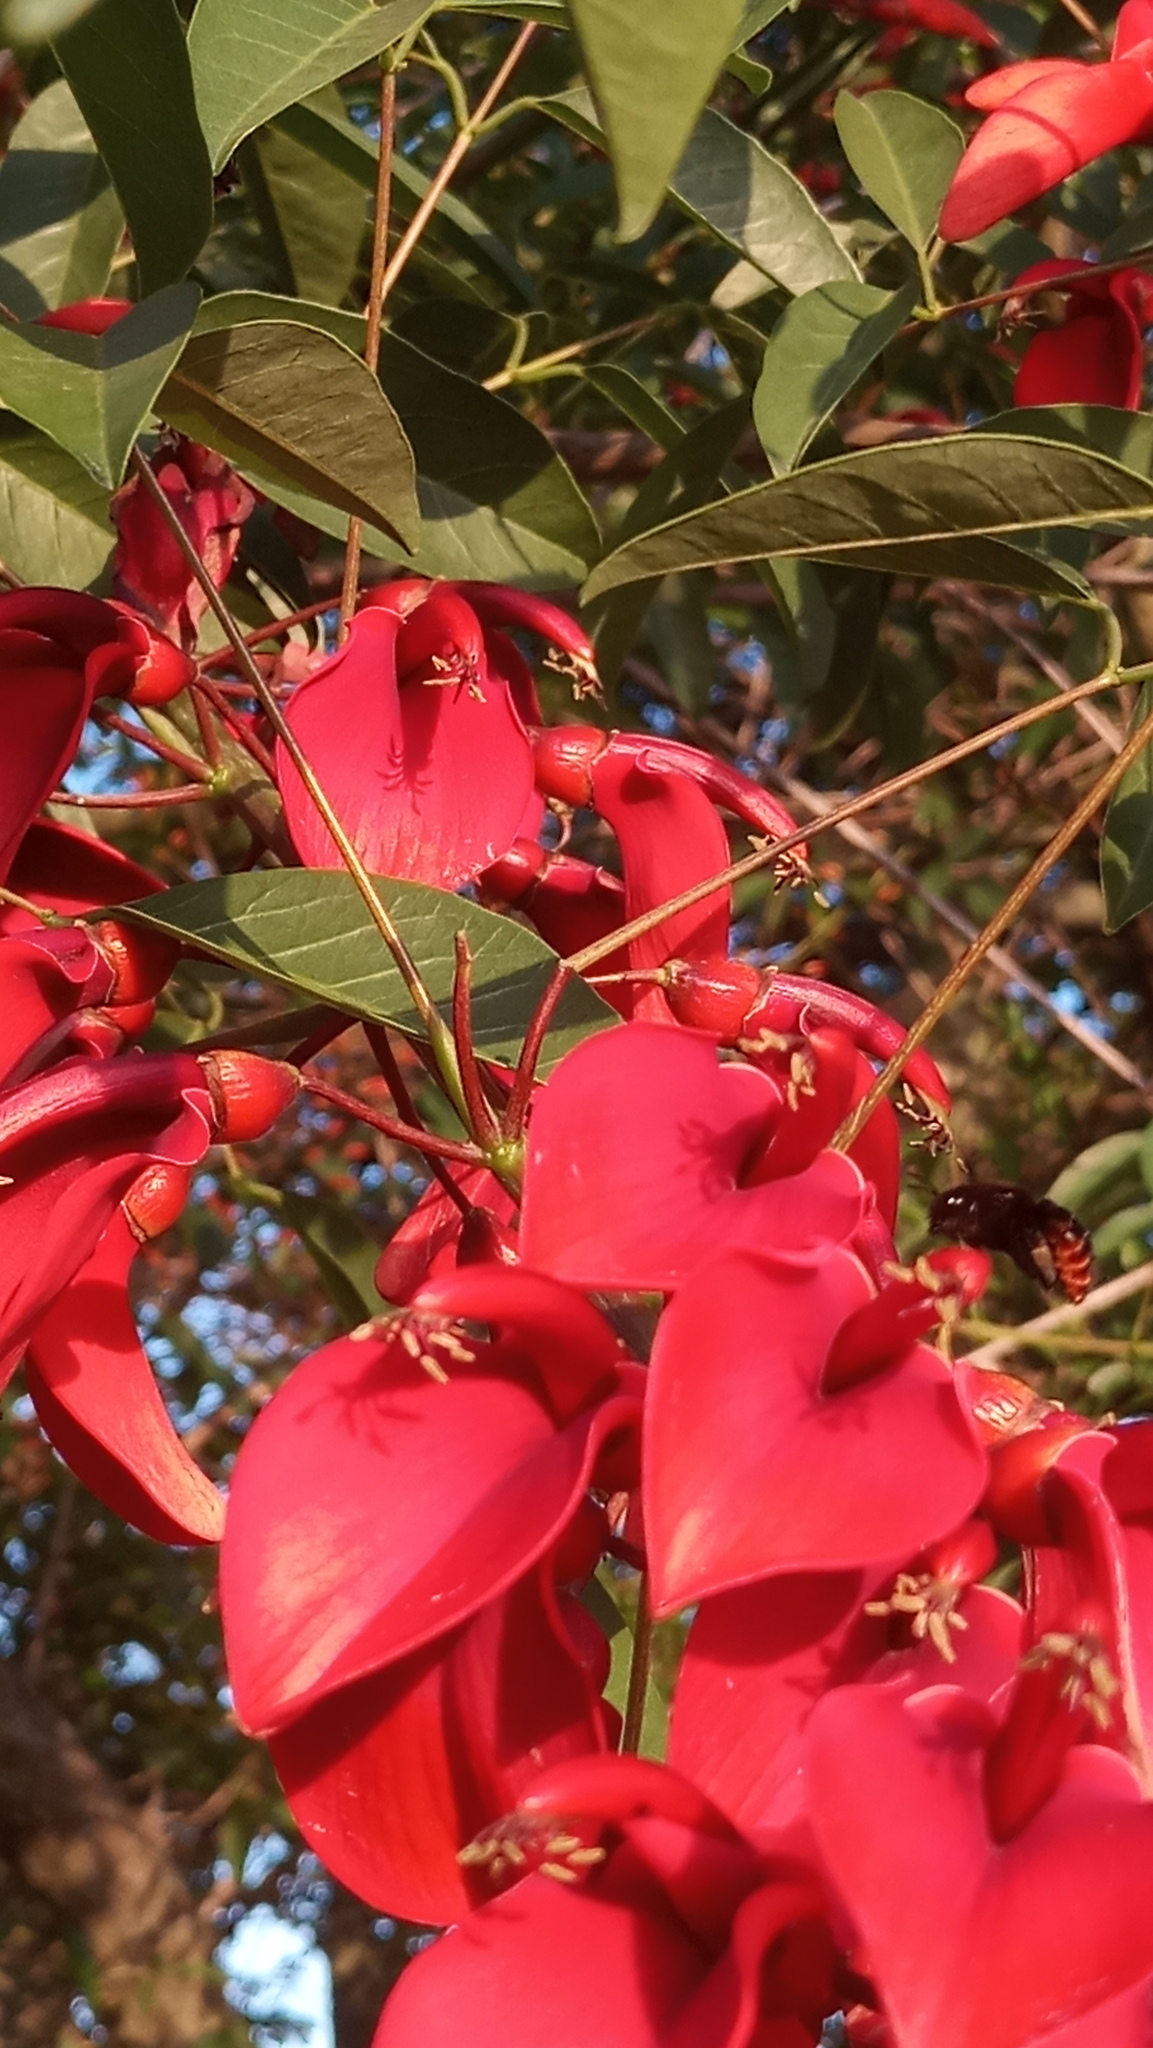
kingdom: Plantae
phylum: Tracheophyta
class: Magnoliopsida
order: Fabales
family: Fabaceae
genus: Erythrina
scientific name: Erythrina crista-galli
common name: Cockspur coral tree
